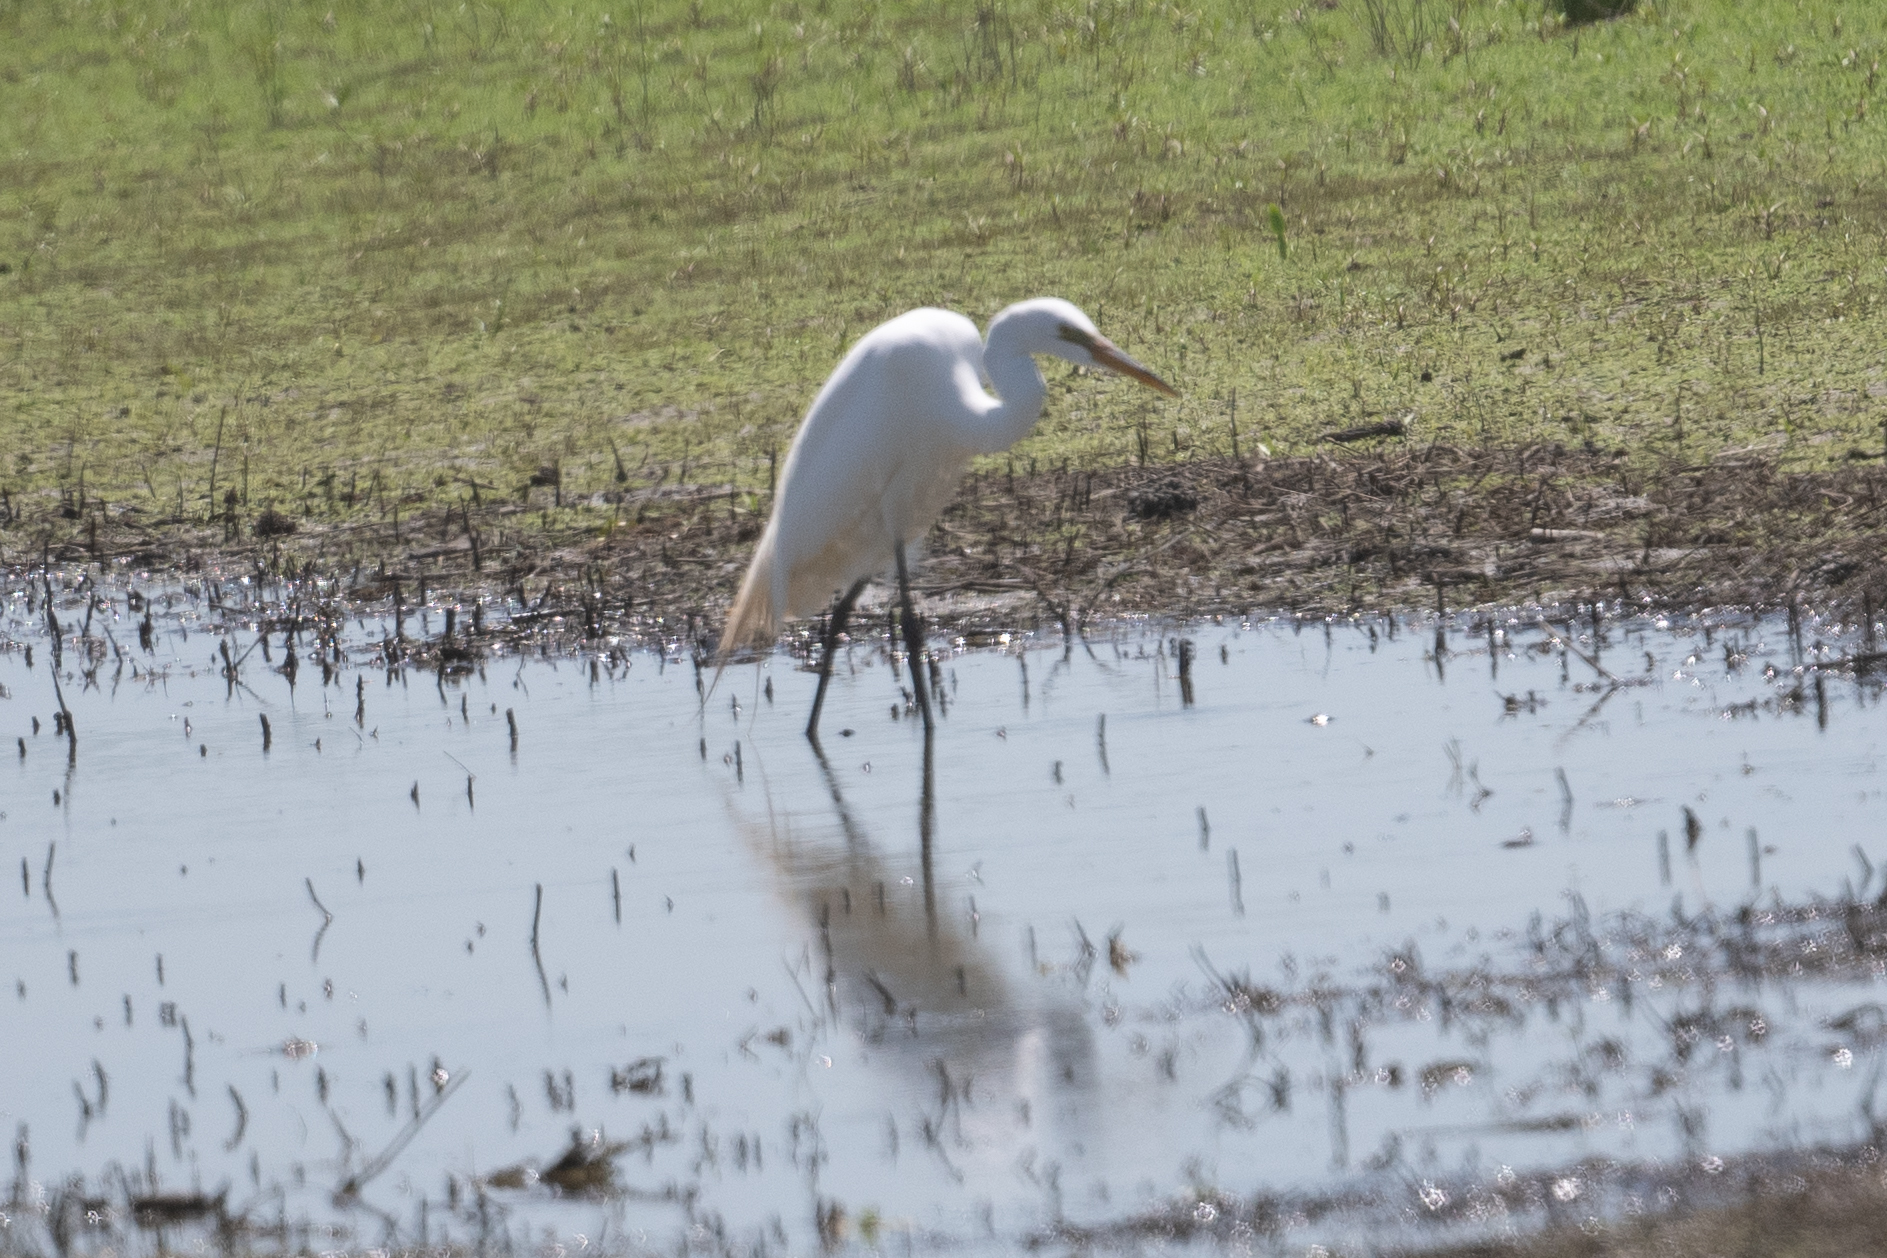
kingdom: Animalia
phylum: Chordata
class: Aves
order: Pelecaniformes
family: Ardeidae
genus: Ardea
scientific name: Ardea alba
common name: Great egret
